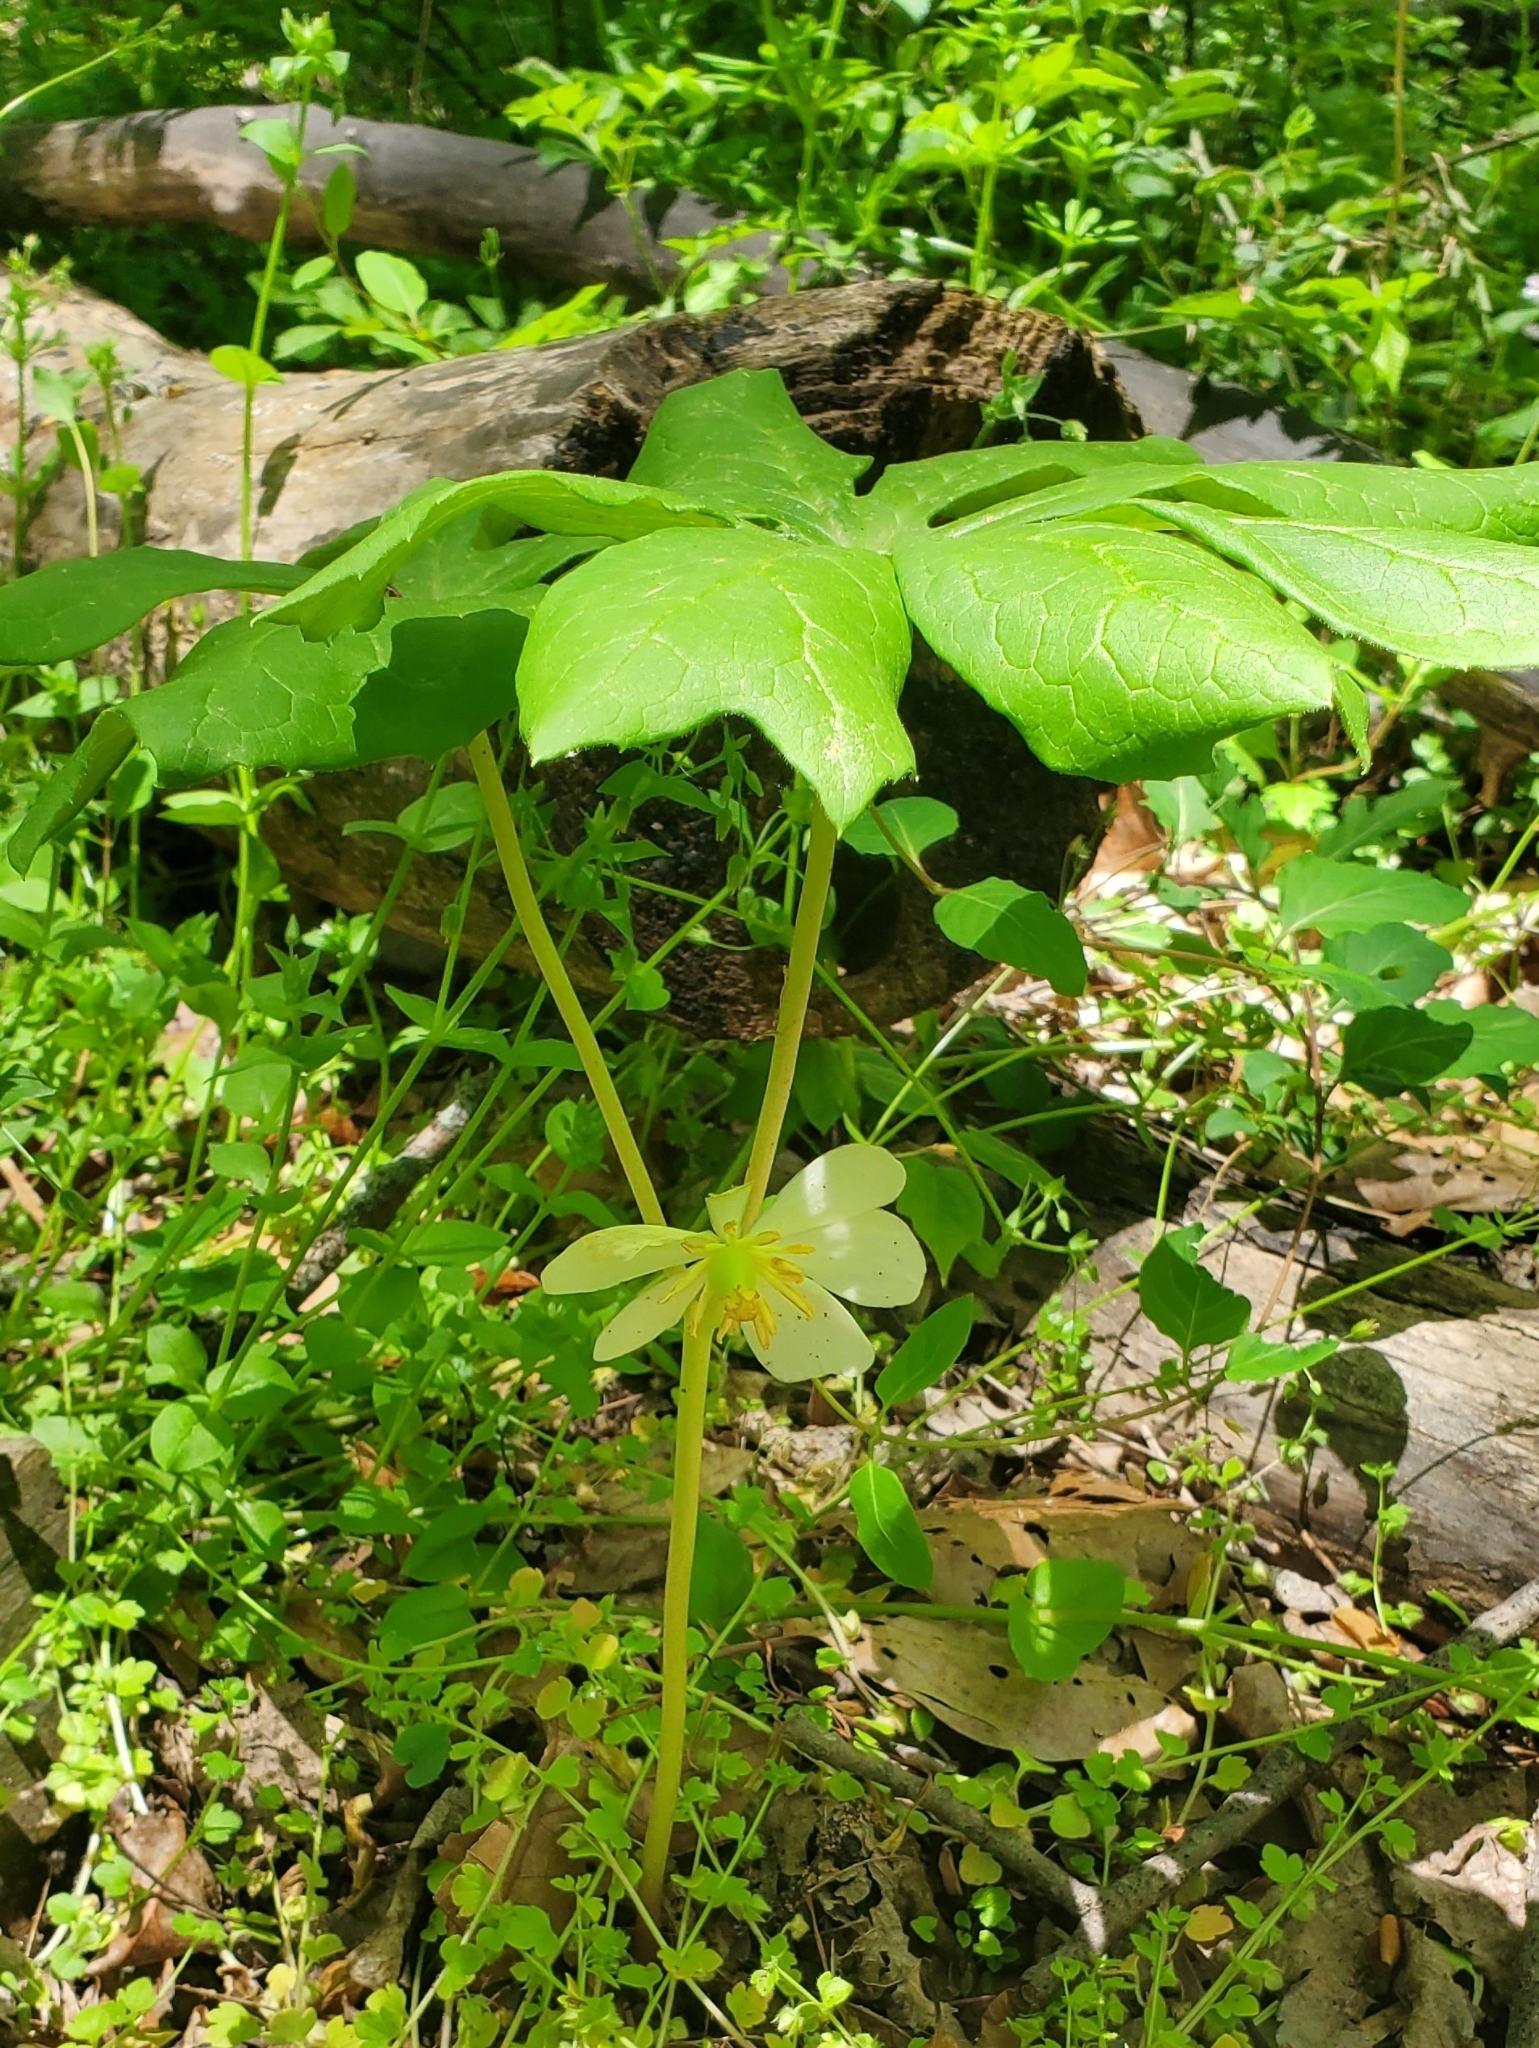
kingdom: Plantae
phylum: Tracheophyta
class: Magnoliopsida
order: Ranunculales
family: Berberidaceae
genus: Podophyllum
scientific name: Podophyllum peltatum
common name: Wild mandrake
